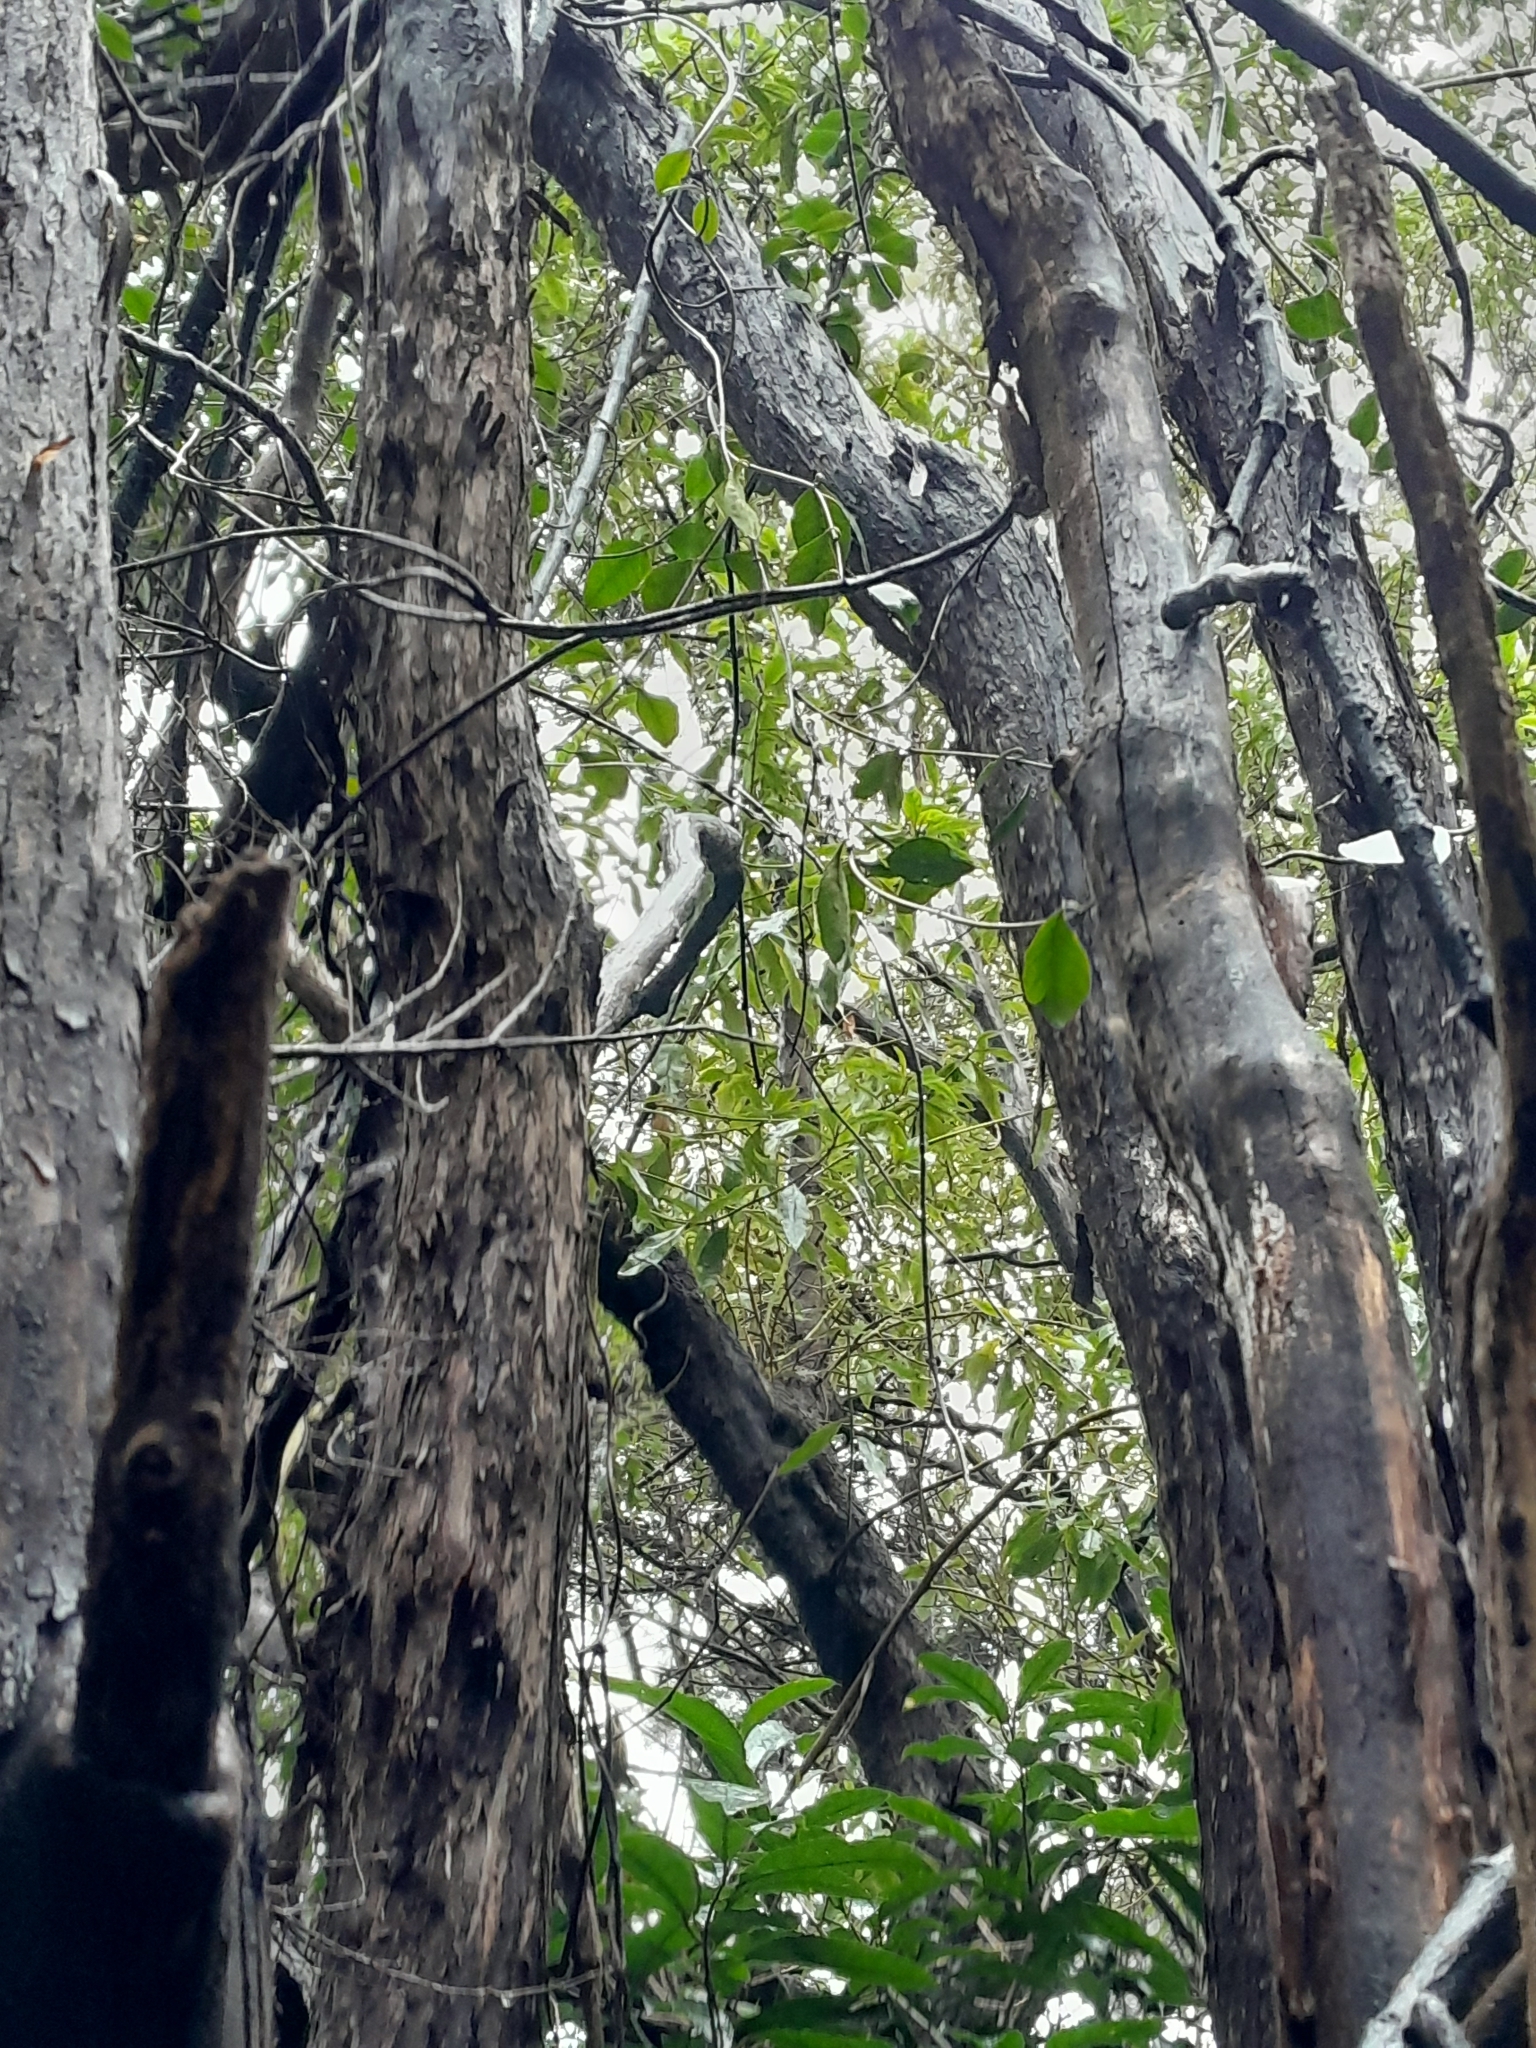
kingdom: Plantae
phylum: Tracheophyta
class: Magnoliopsida
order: Malpighiales
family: Passifloraceae
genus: Passiflora
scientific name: Passiflora tetrandra
